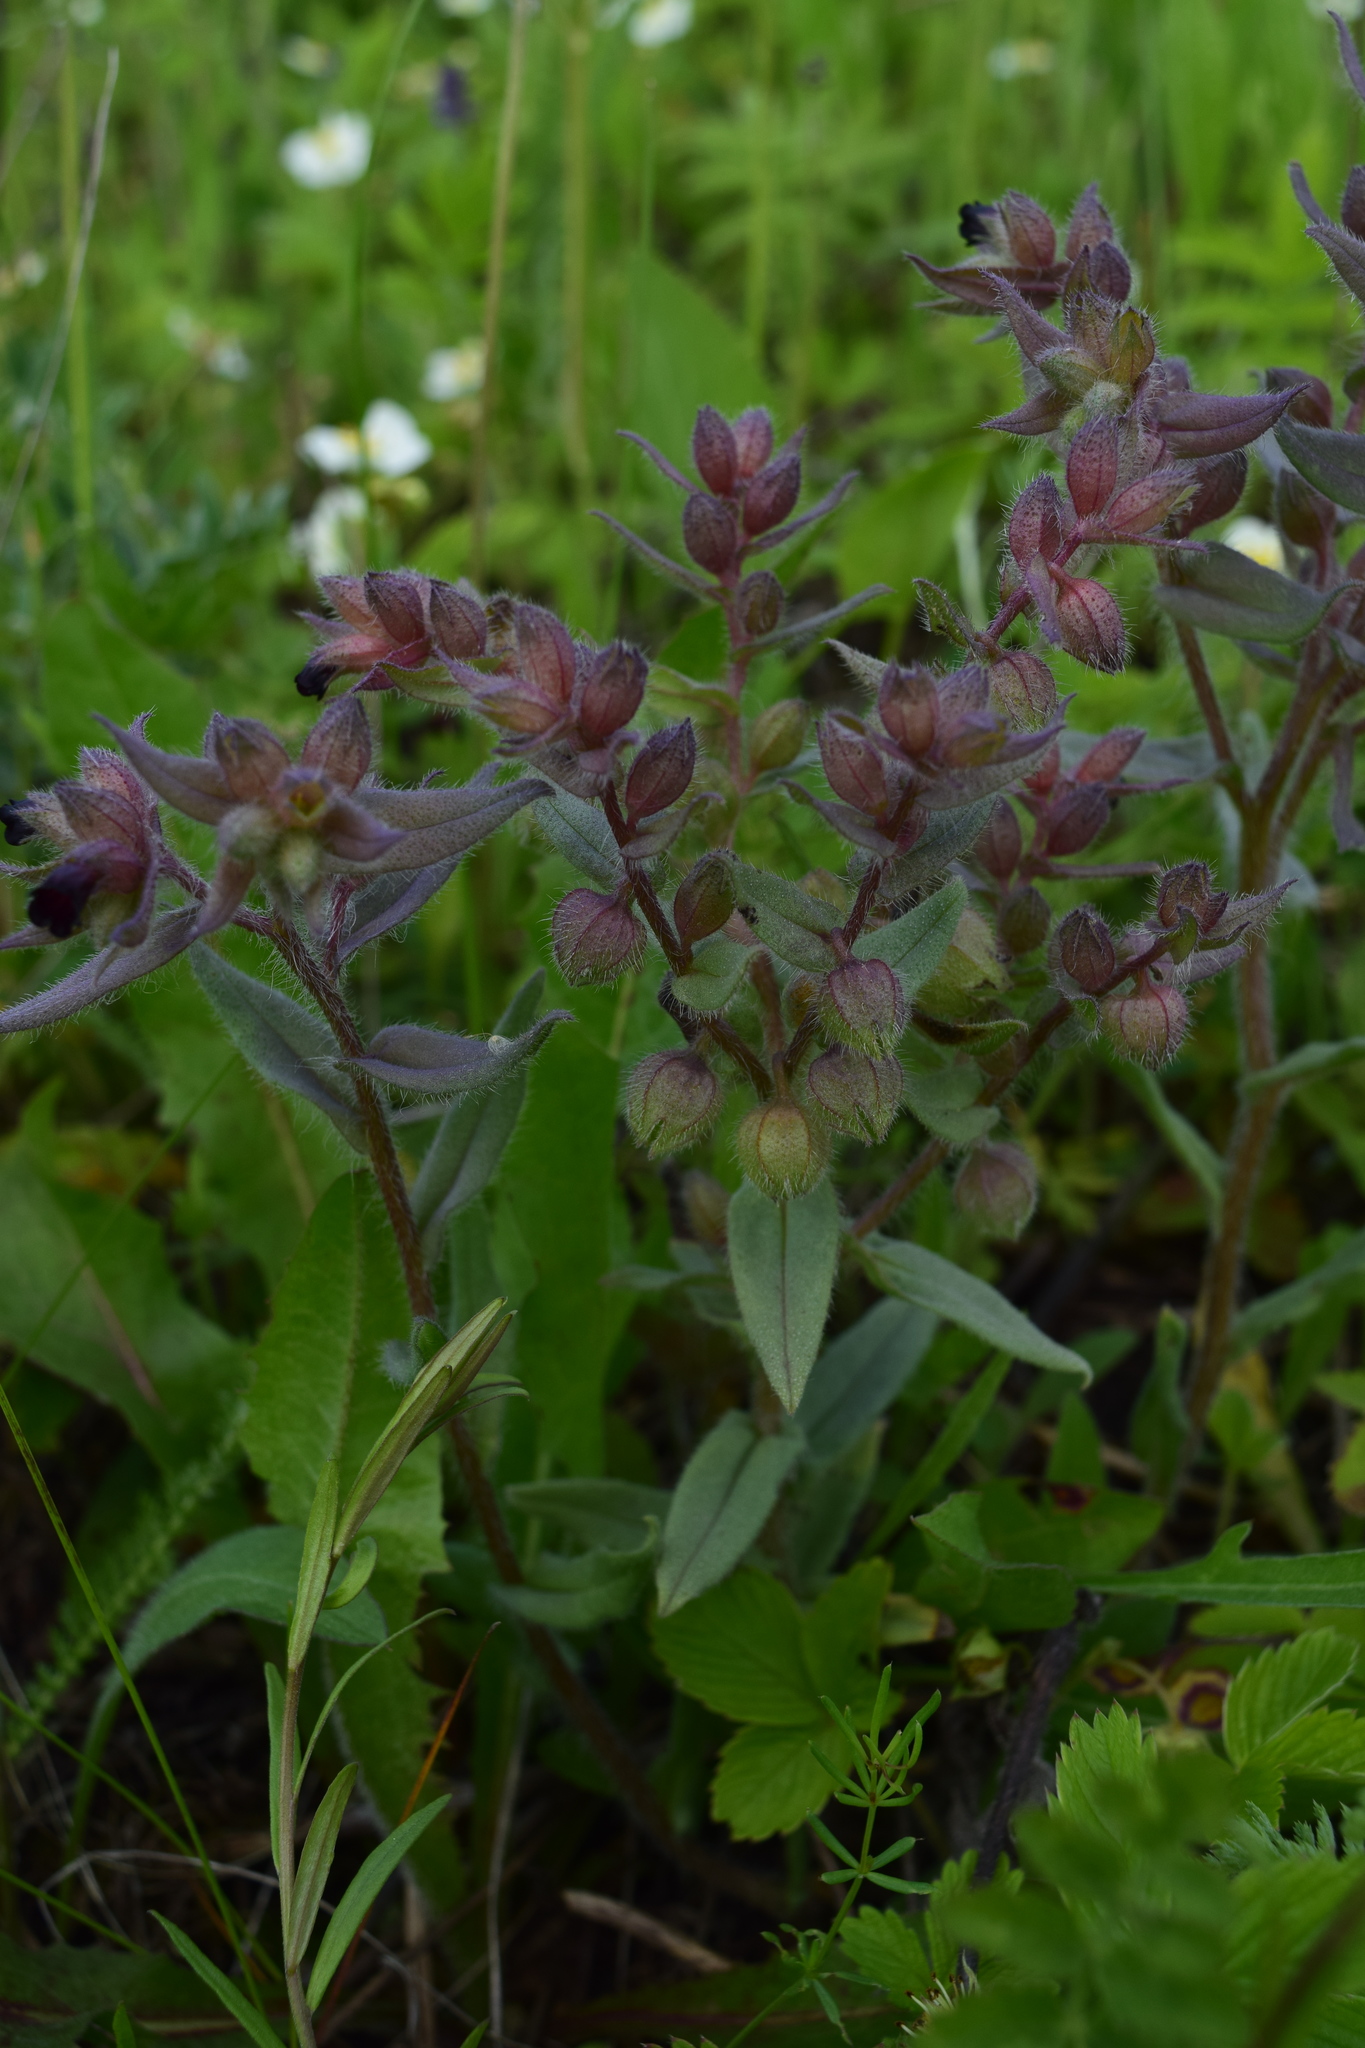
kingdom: Plantae
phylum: Tracheophyta
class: Magnoliopsida
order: Boraginales
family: Boraginaceae
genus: Nonea
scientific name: Nonea pulla
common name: Brown nonea
